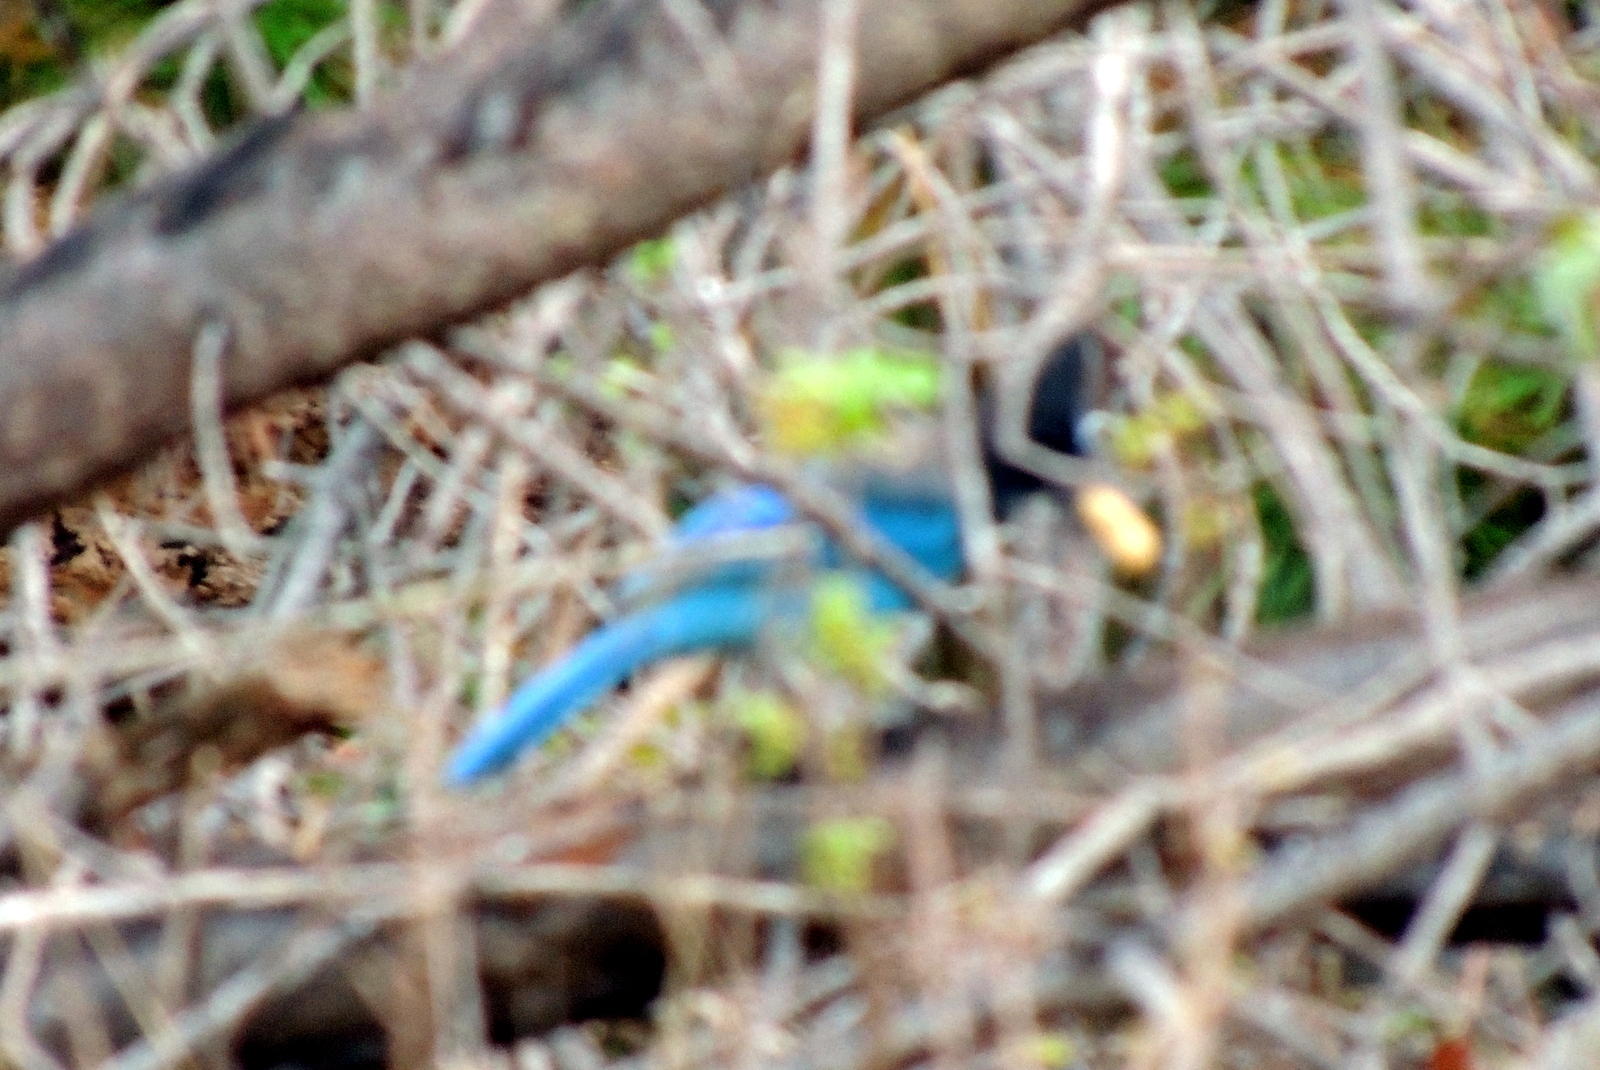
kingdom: Animalia
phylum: Chordata
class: Aves
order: Passeriformes
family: Corvidae
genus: Cyanocitta
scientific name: Cyanocitta stelleri
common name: Steller's jay
